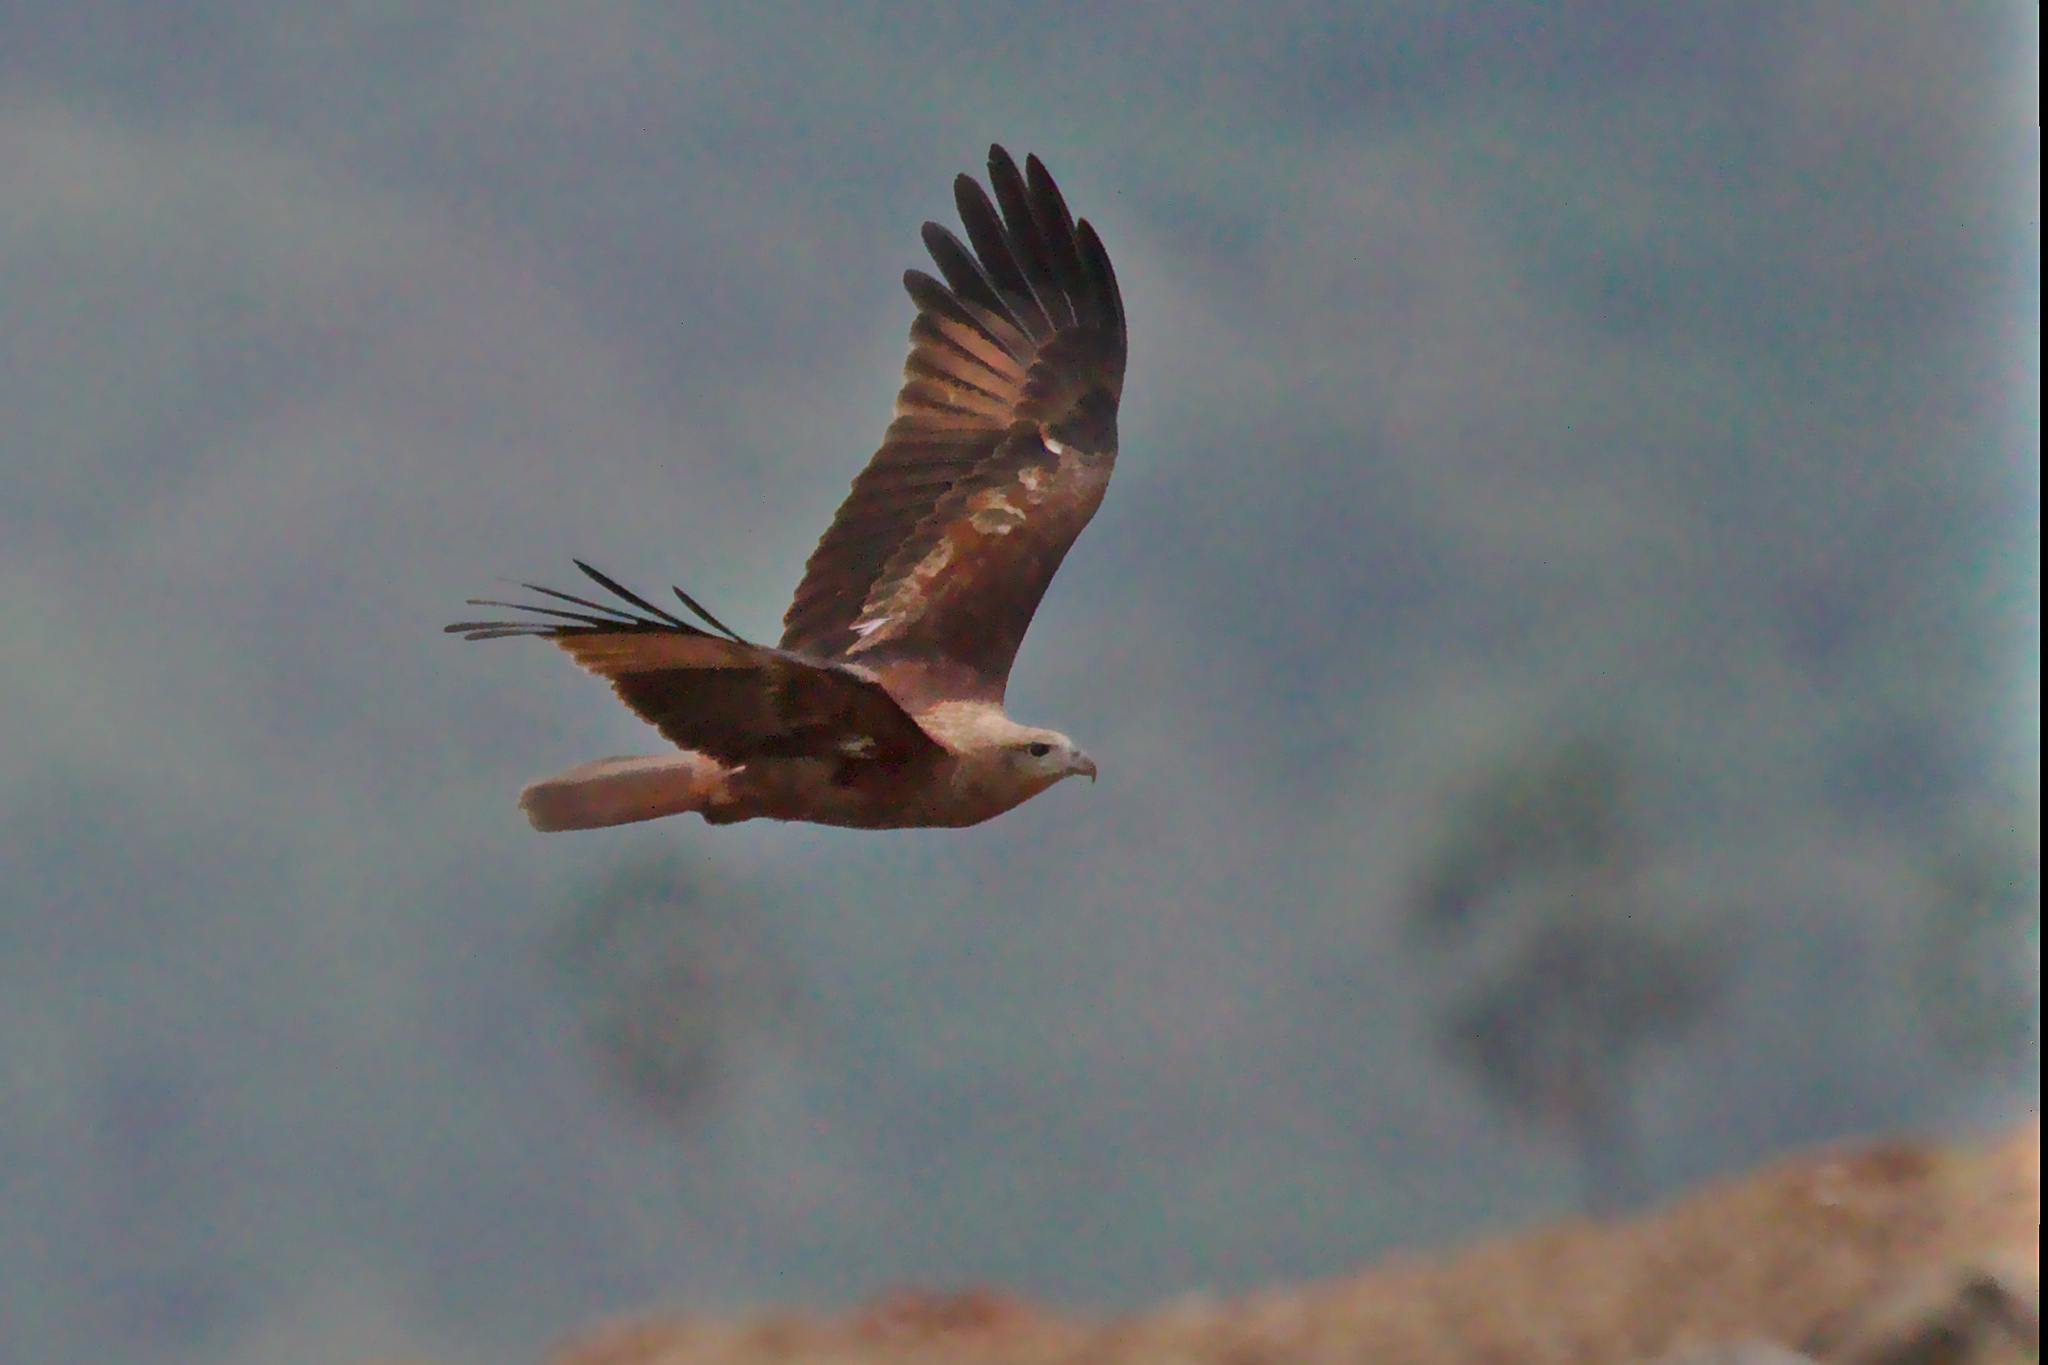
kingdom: Animalia
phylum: Chordata
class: Aves
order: Accipitriformes
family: Accipitridae
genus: Haliastur
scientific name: Haliastur indus
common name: Brahminy kite
